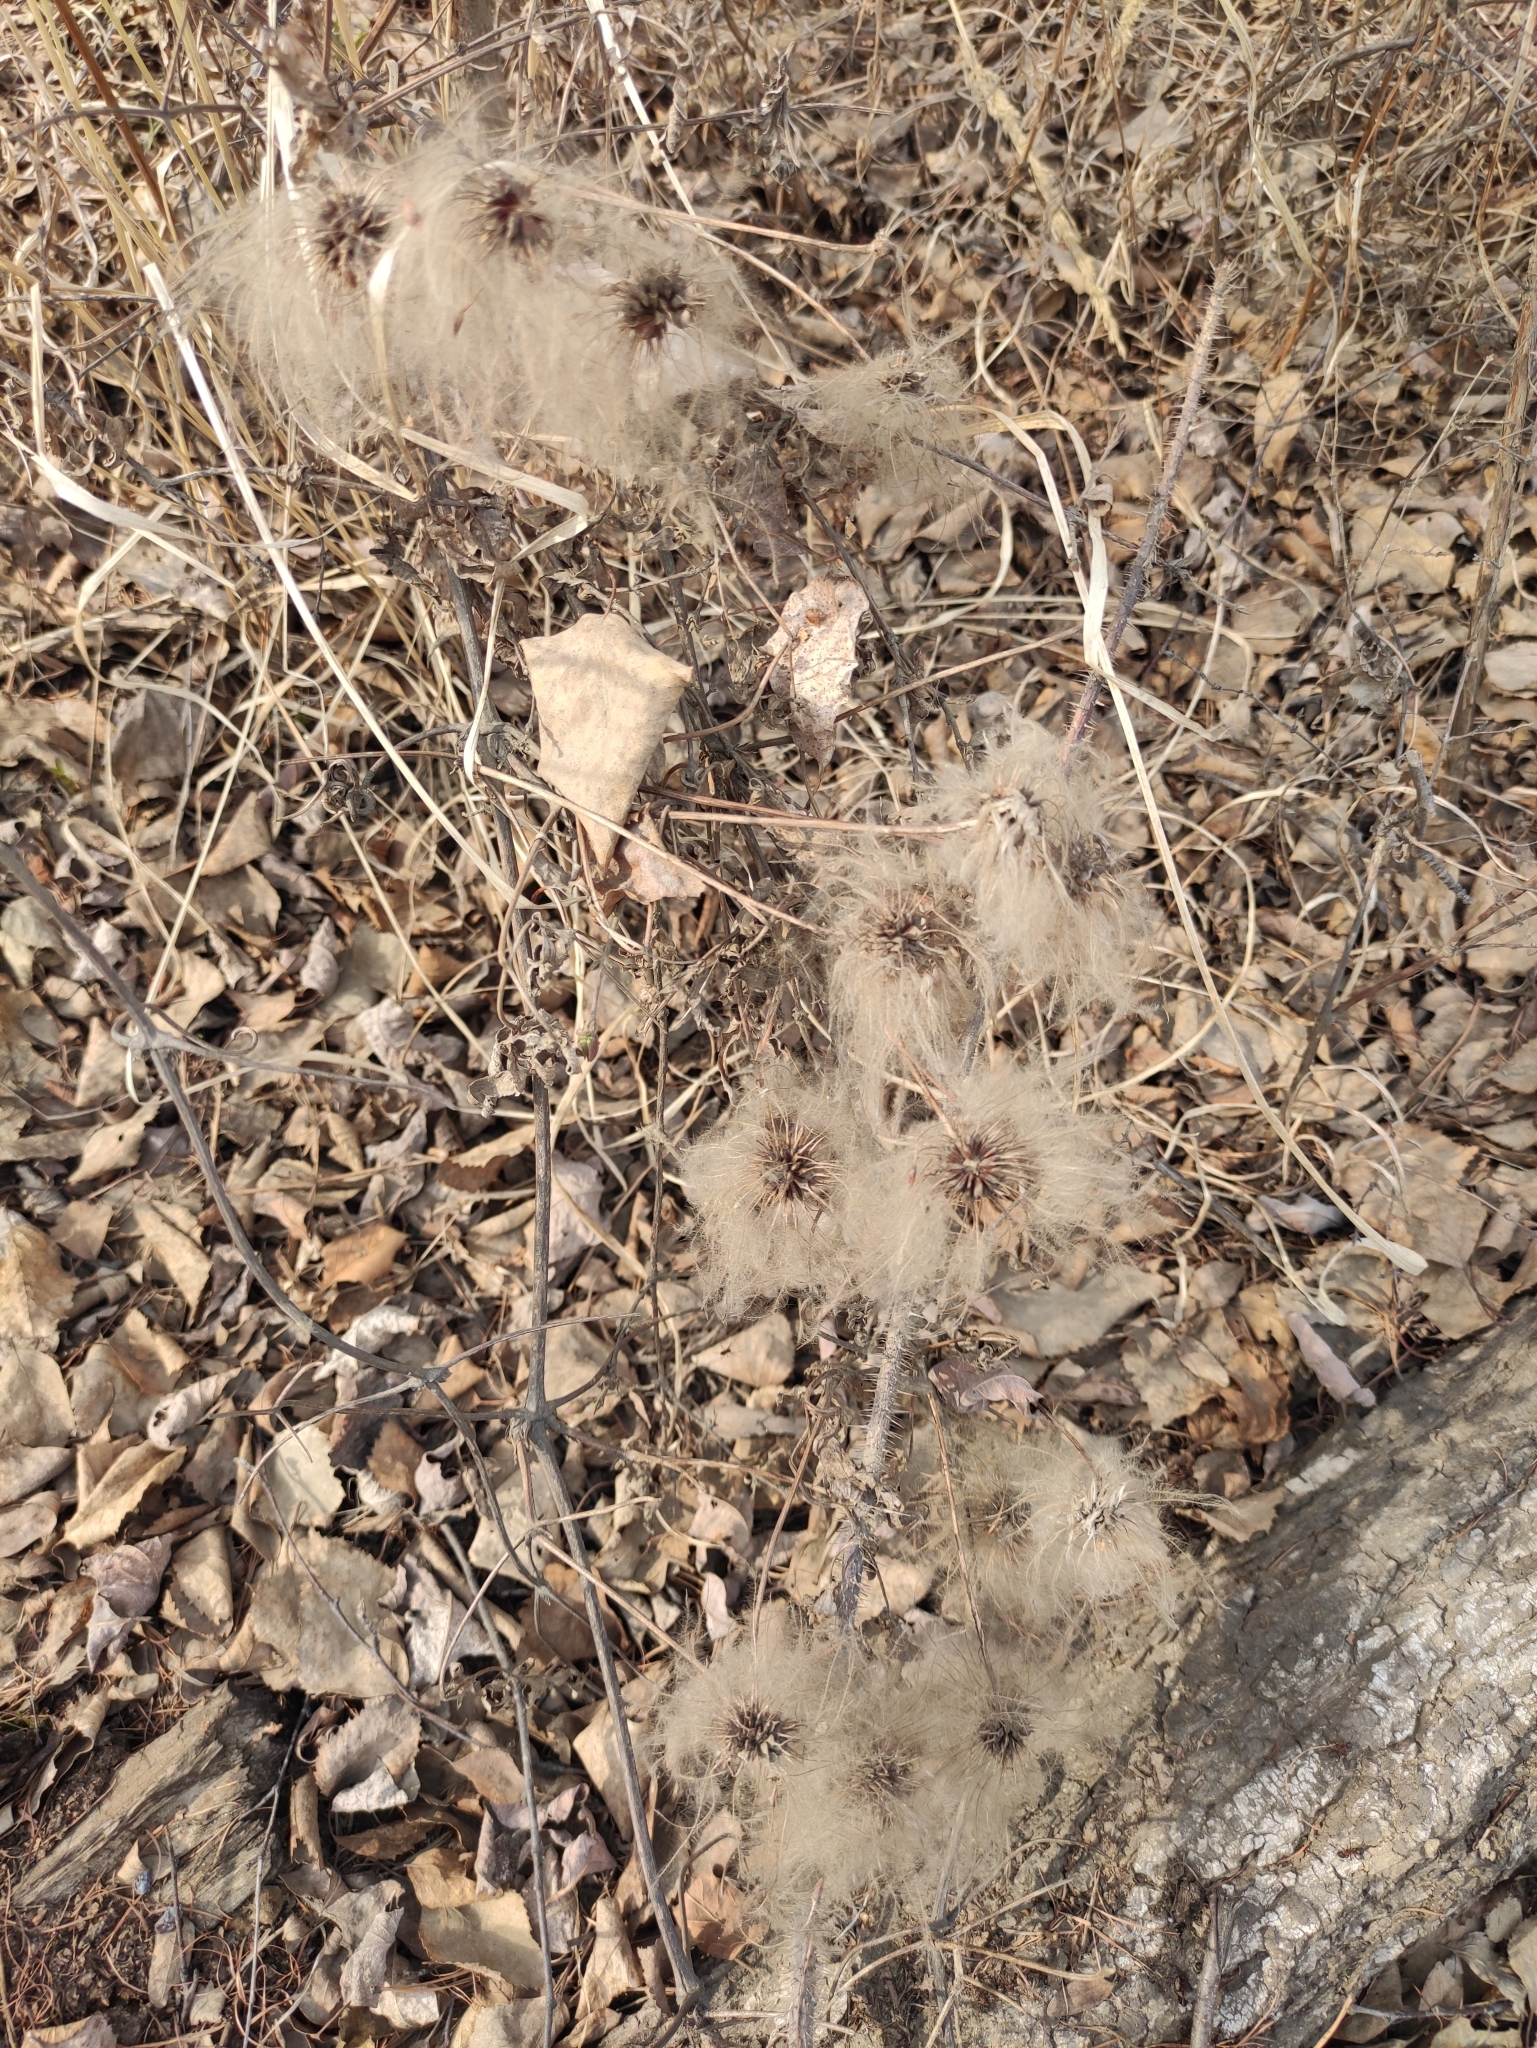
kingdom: Plantae
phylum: Tracheophyta
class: Magnoliopsida
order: Ranunculales
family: Ranunculaceae
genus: Clematis
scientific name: Clematis sibirica
